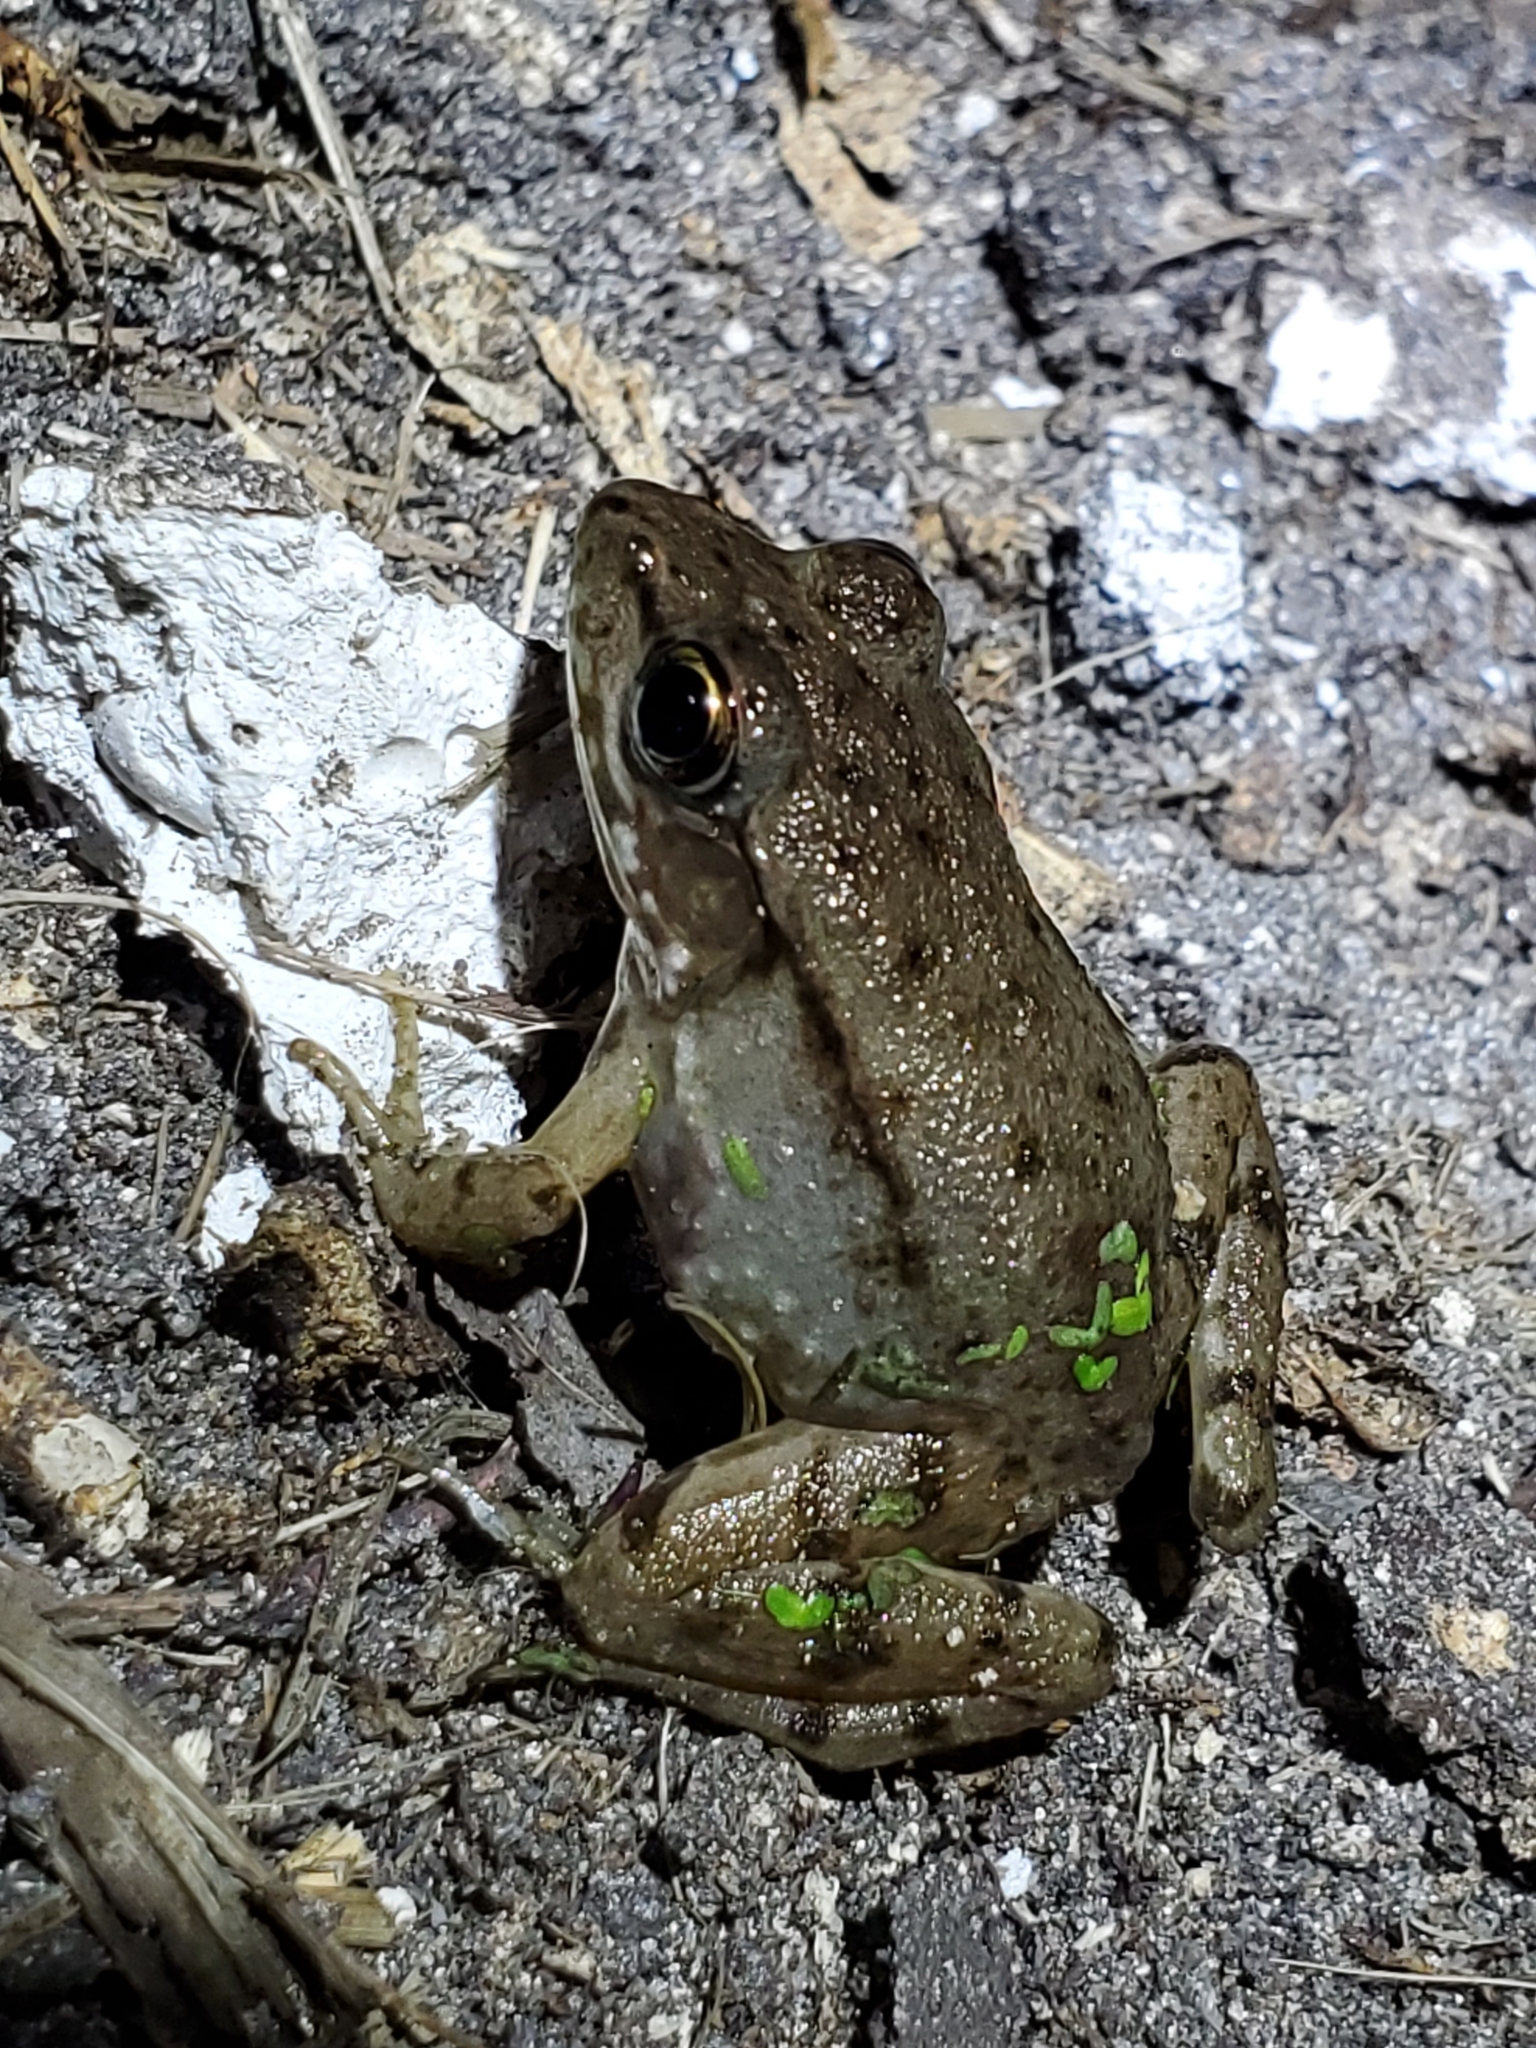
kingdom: Animalia
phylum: Chordata
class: Amphibia
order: Anura
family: Ranidae
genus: Lithobates
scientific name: Lithobates clamitans
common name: Green frog
